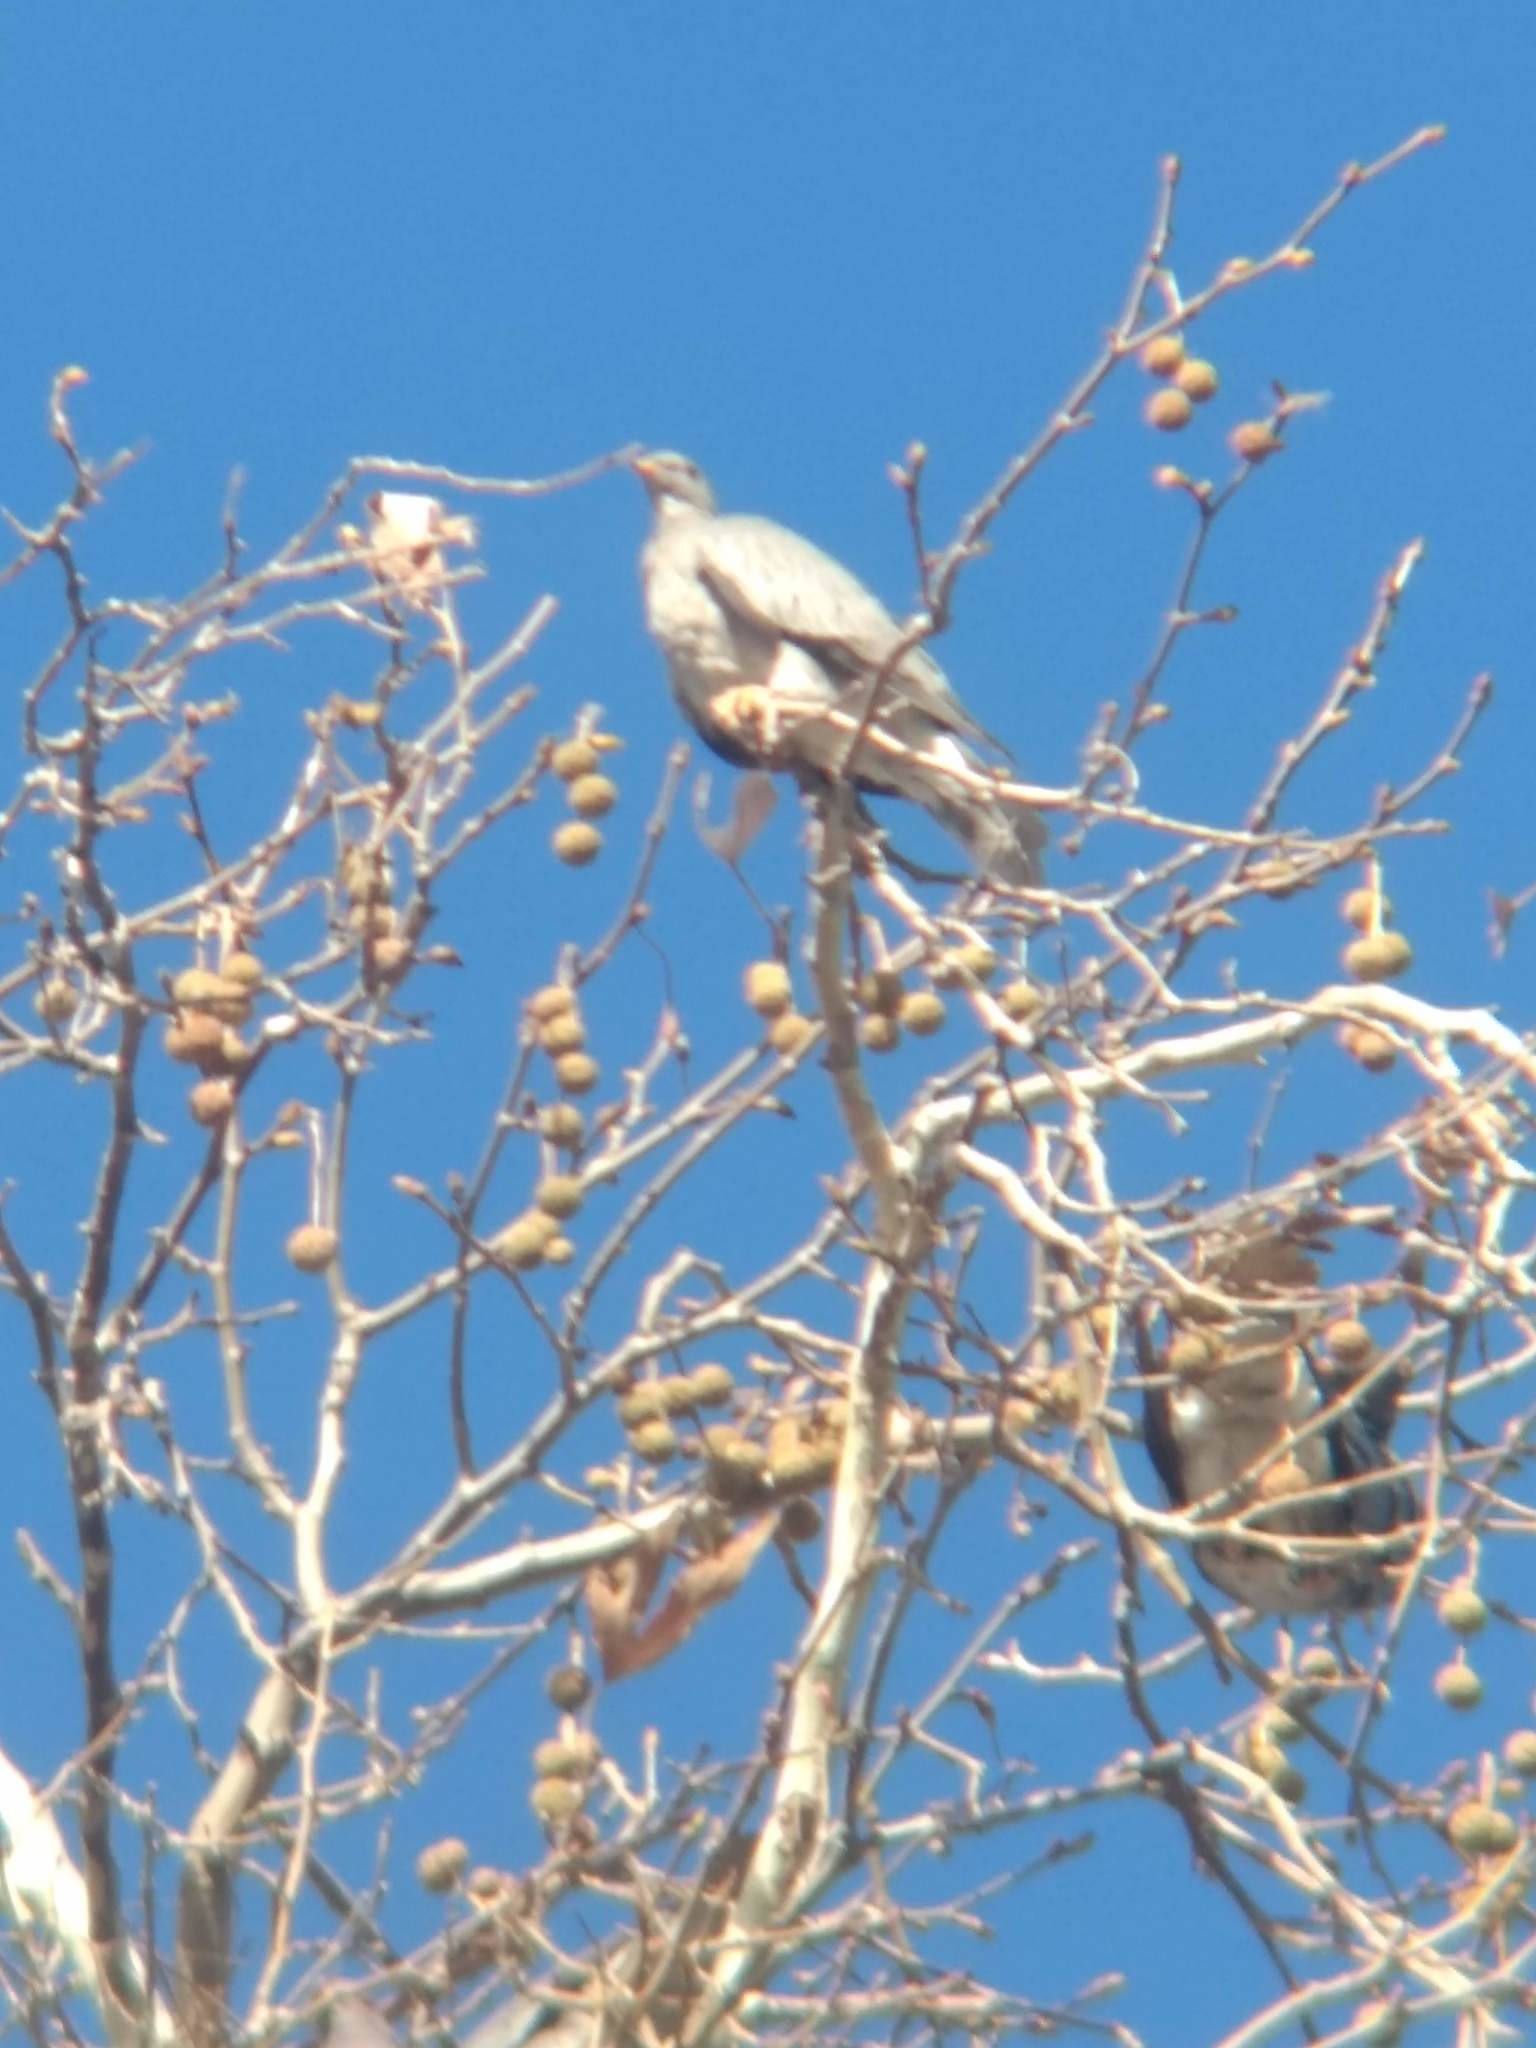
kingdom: Animalia
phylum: Chordata
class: Aves
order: Columbiformes
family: Columbidae
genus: Patagioenas
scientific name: Patagioenas fasciata
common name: Band-tailed pigeon
